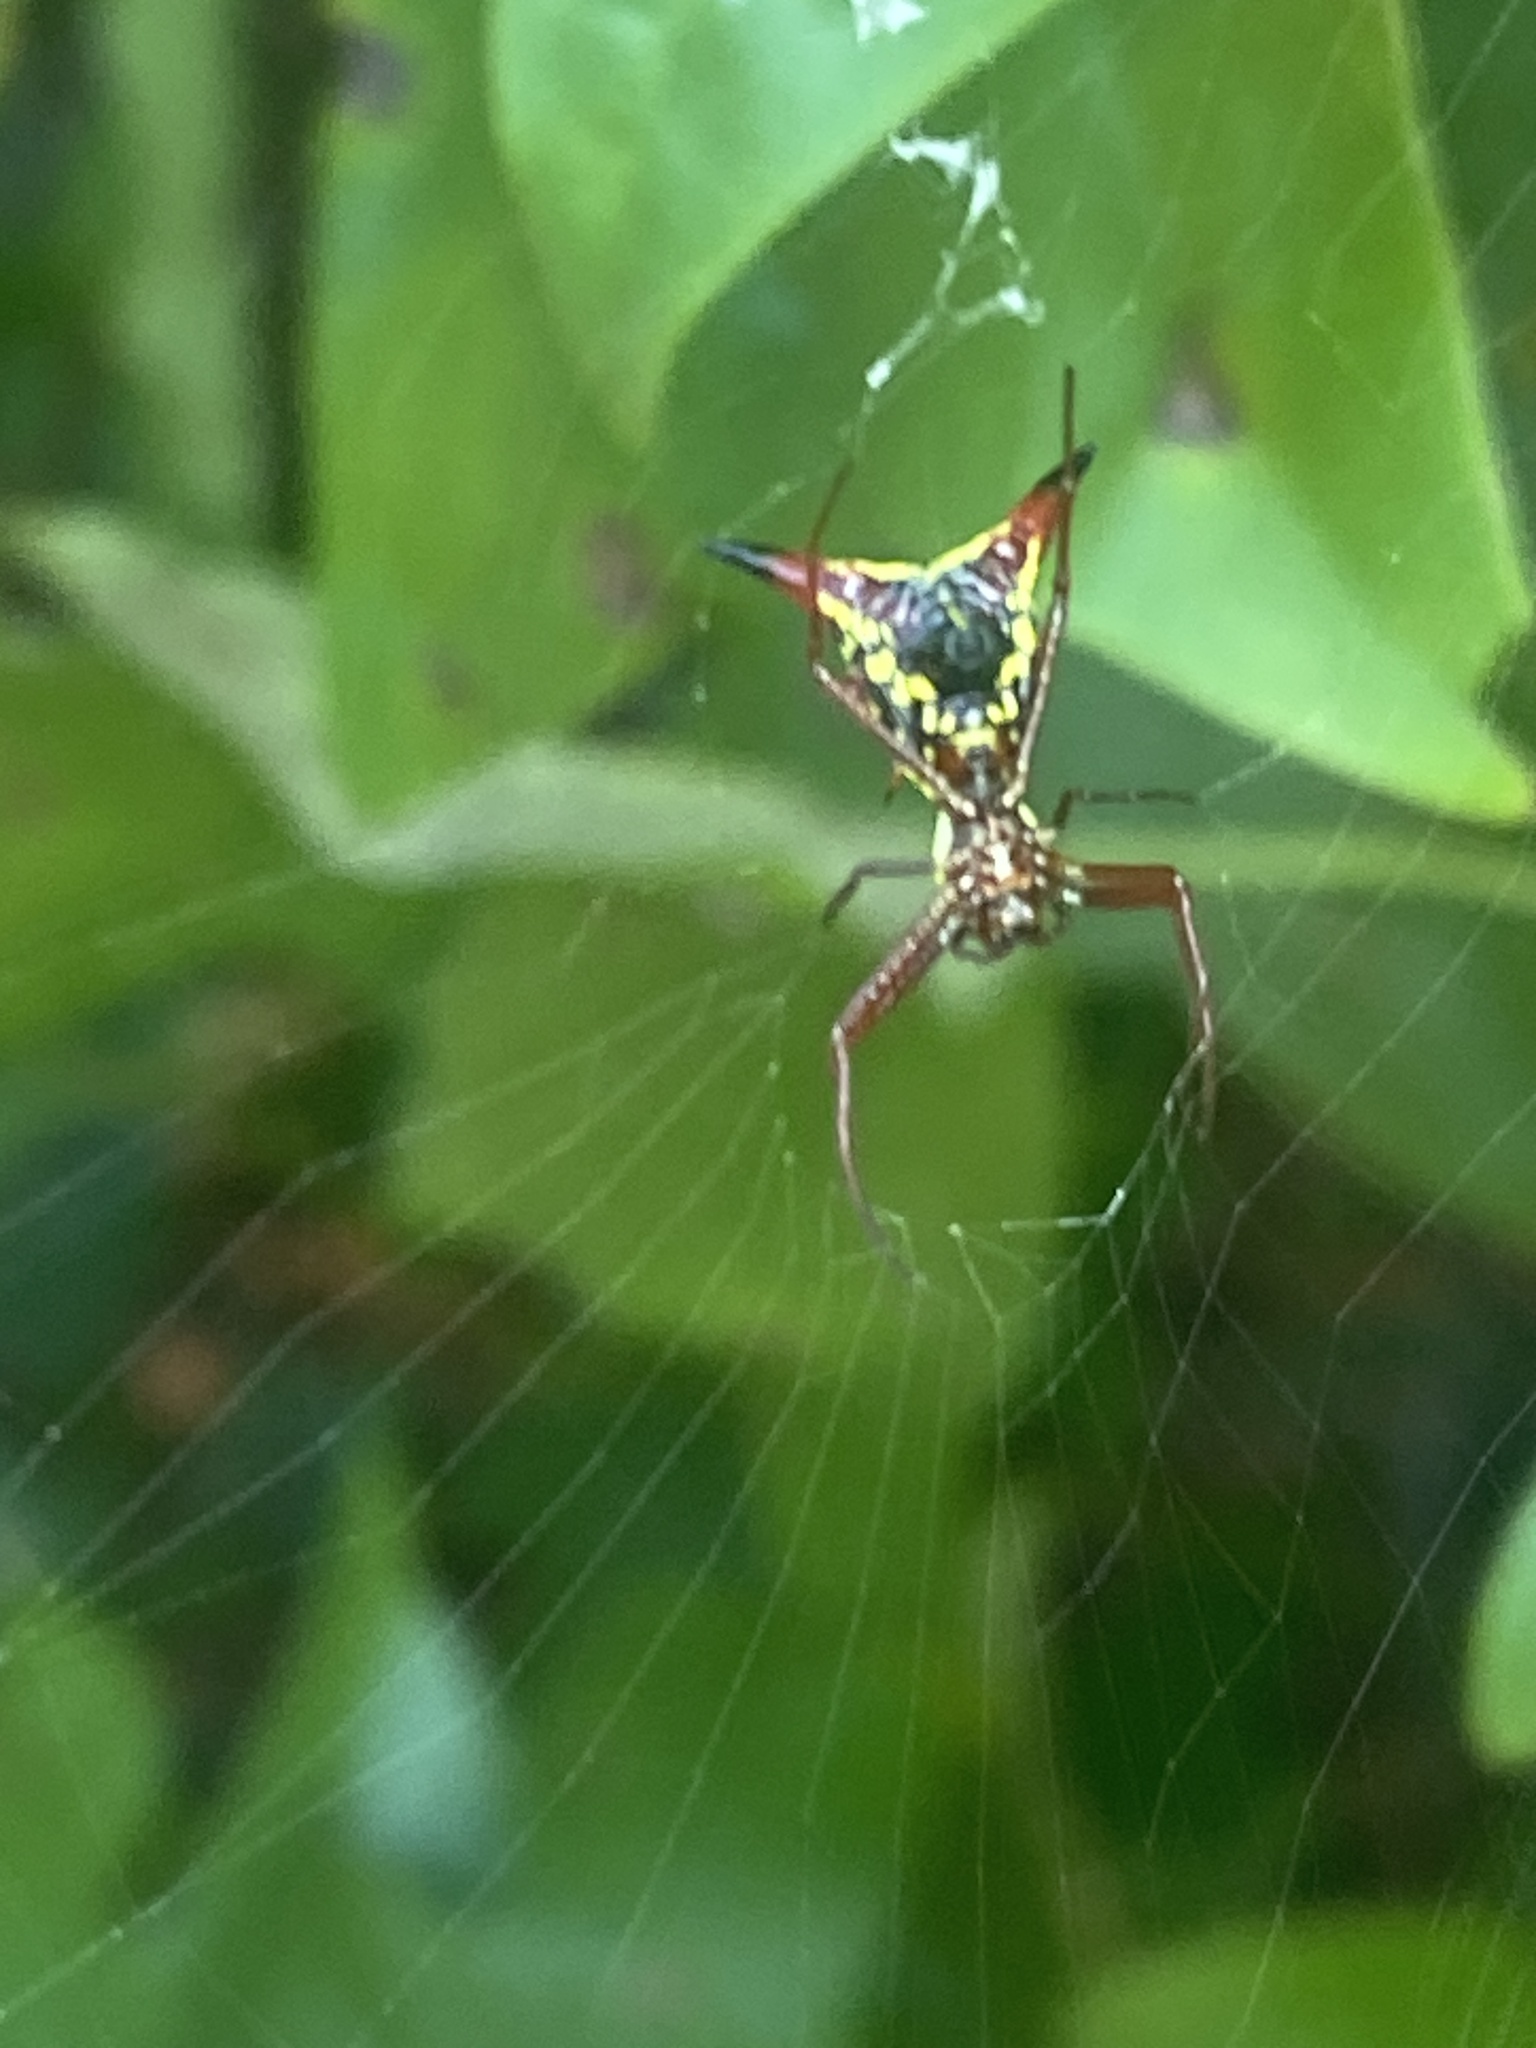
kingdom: Animalia
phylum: Arthropoda
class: Arachnida
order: Araneae
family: Araneidae
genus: Micrathena
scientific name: Micrathena sagittata
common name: Orb weavers
